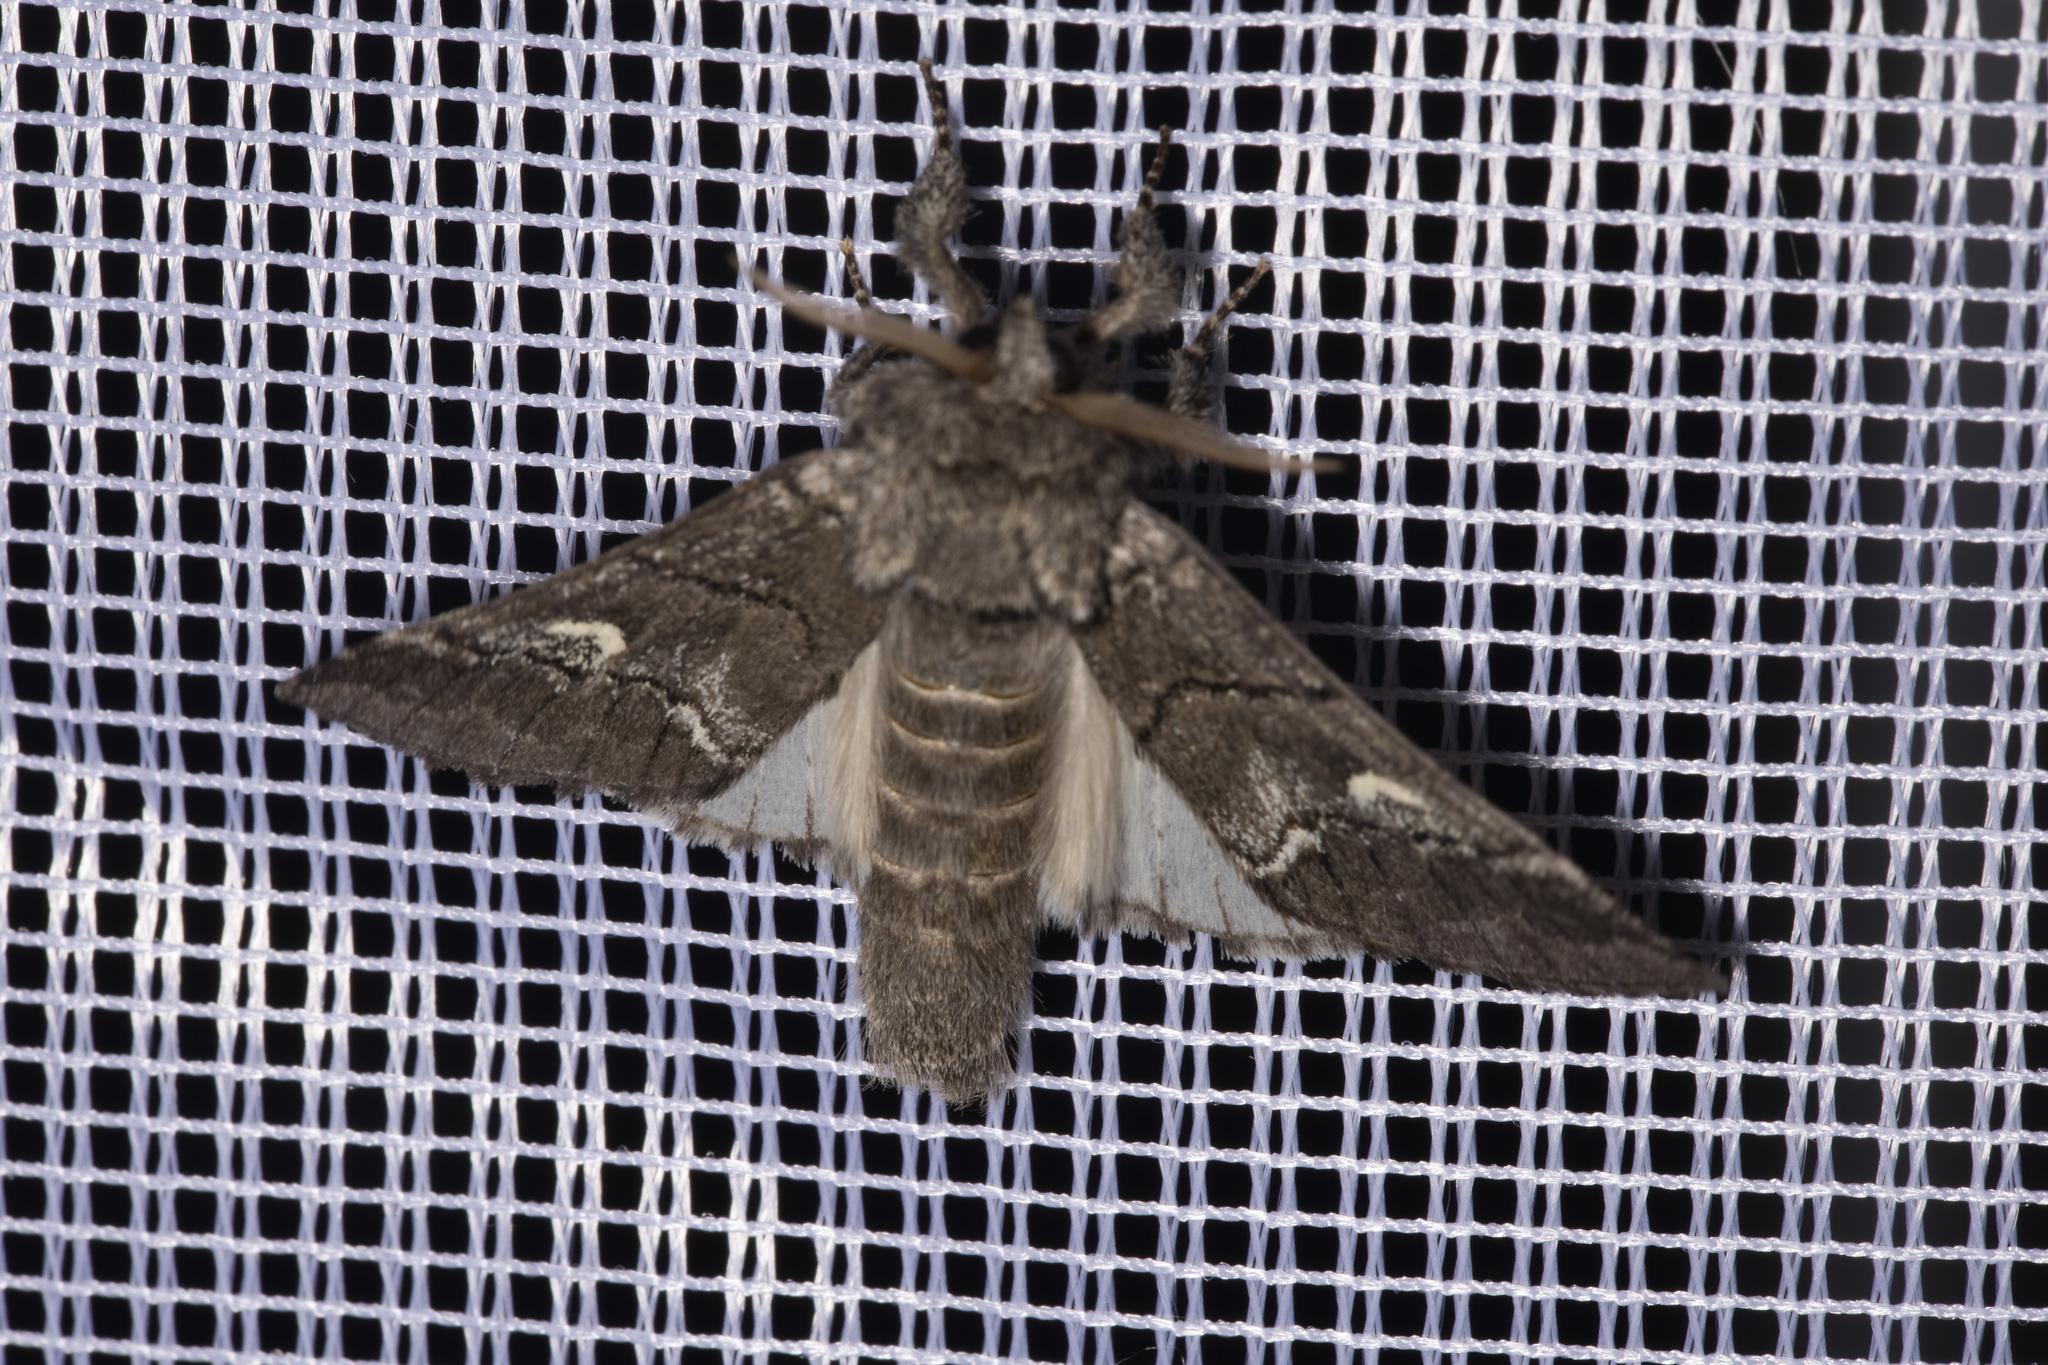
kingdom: Animalia
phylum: Arthropoda
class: Insecta
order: Lepidoptera
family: Notodontidae
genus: Drymonia
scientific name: Drymonia querna
